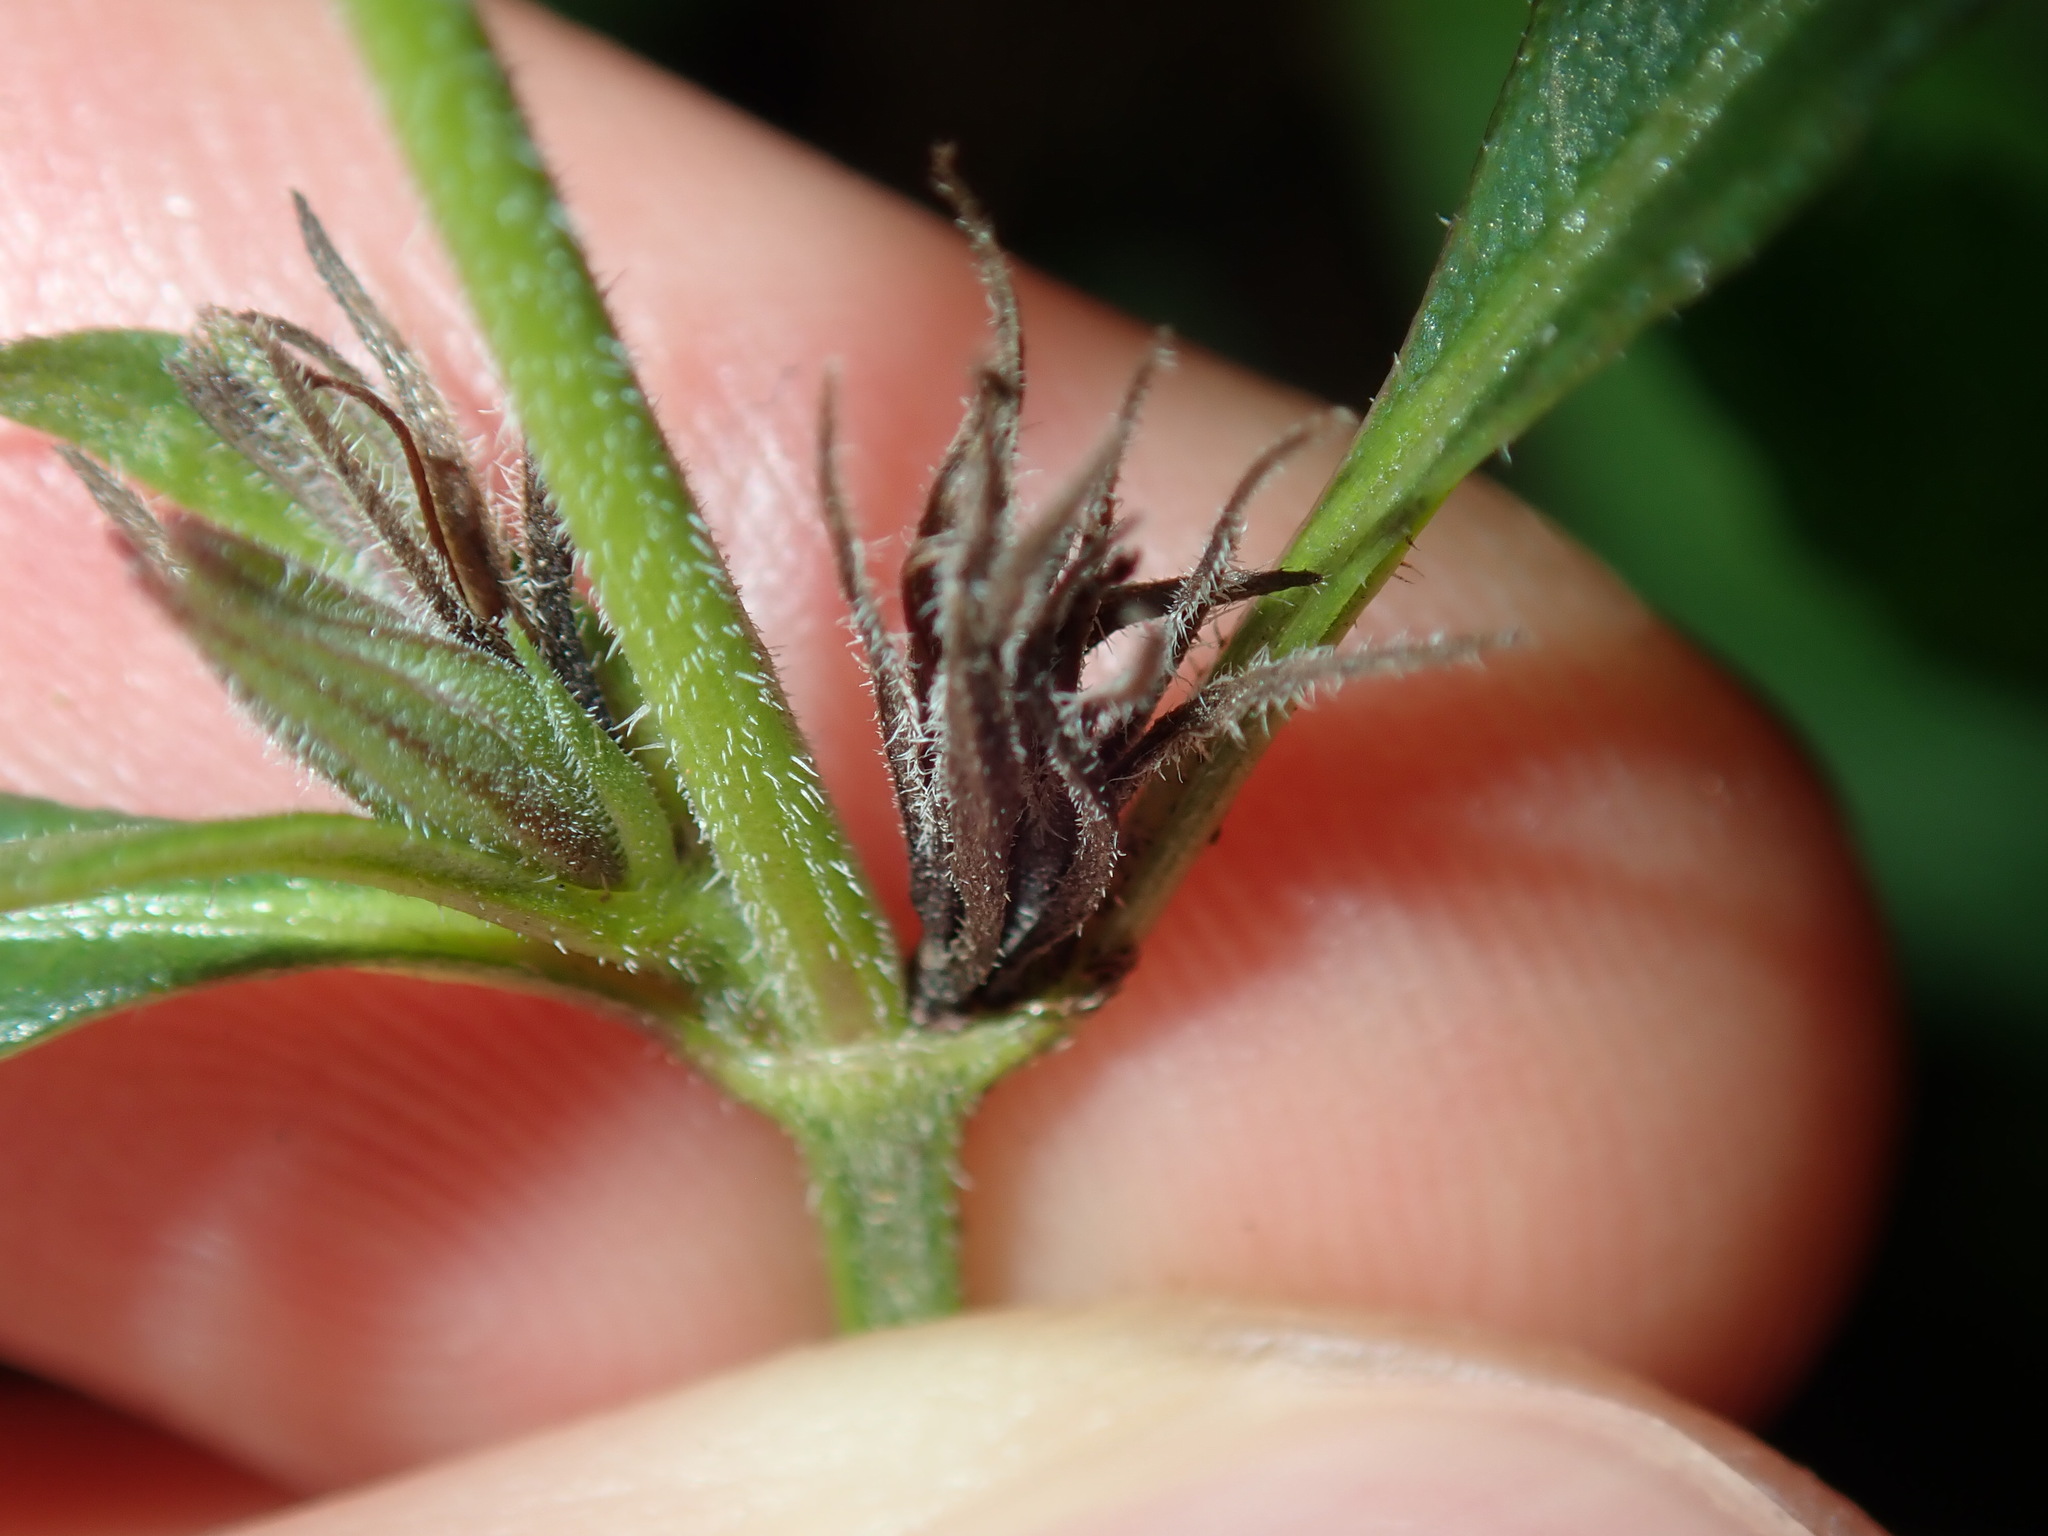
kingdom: Plantae
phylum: Tracheophyta
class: Magnoliopsida
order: Lamiales
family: Acanthaceae
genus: Brunoniella
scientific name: Brunoniella australis
